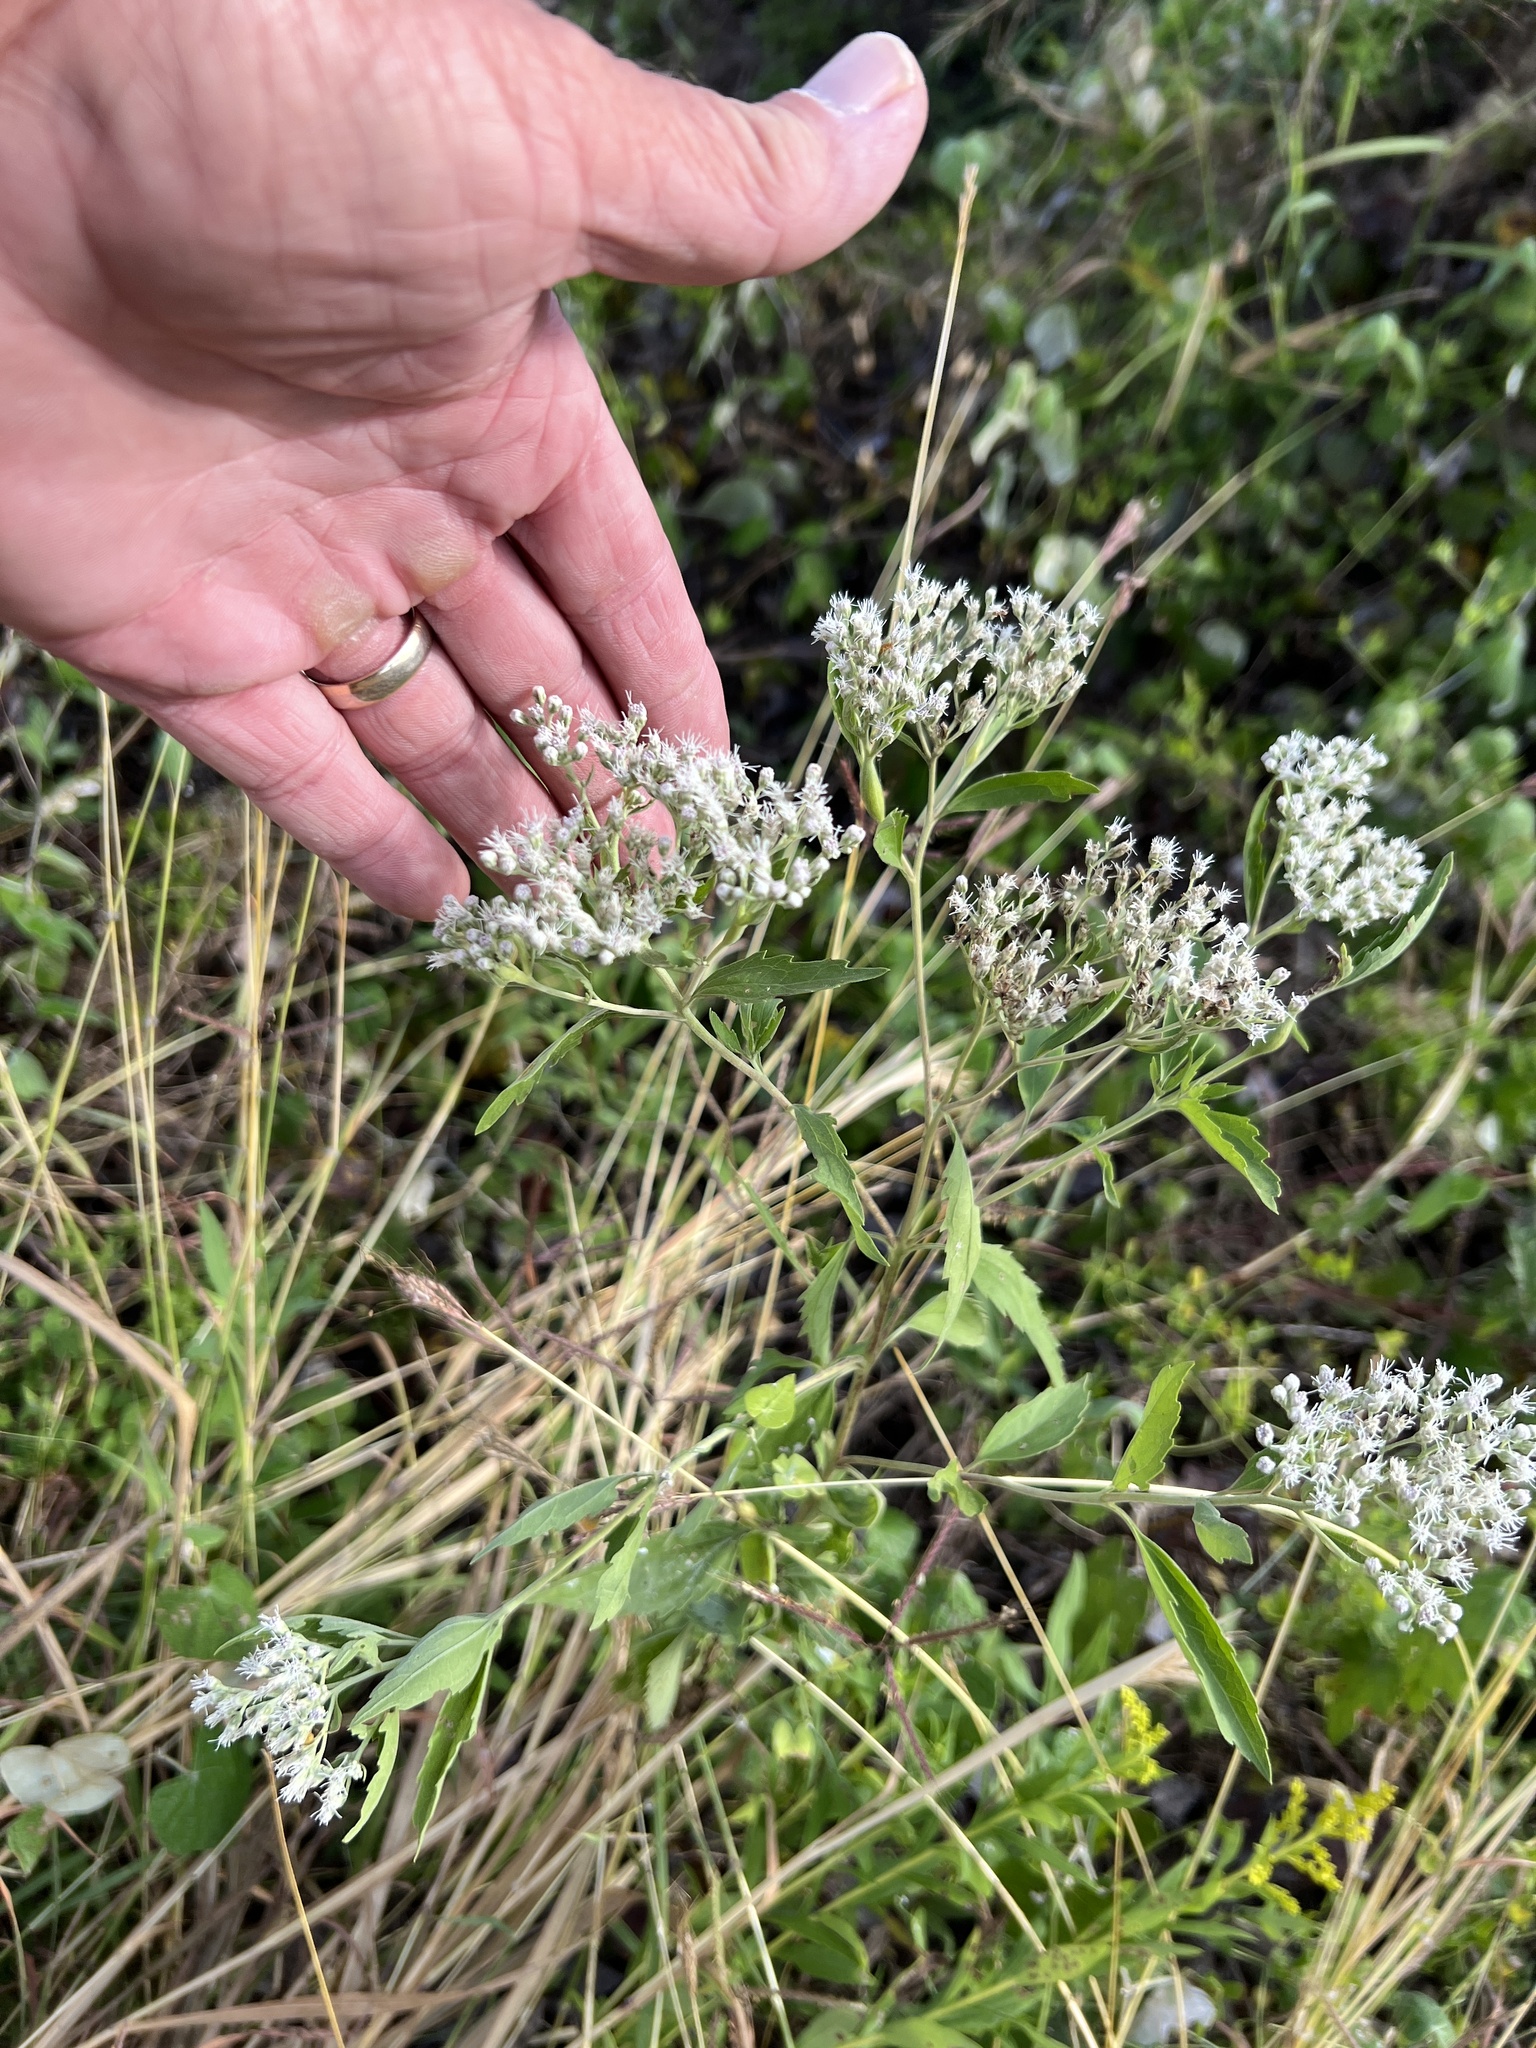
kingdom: Plantae
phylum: Tracheophyta
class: Magnoliopsida
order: Asterales
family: Asteraceae
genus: Eupatorium
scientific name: Eupatorium serotinum
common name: Late boneset
